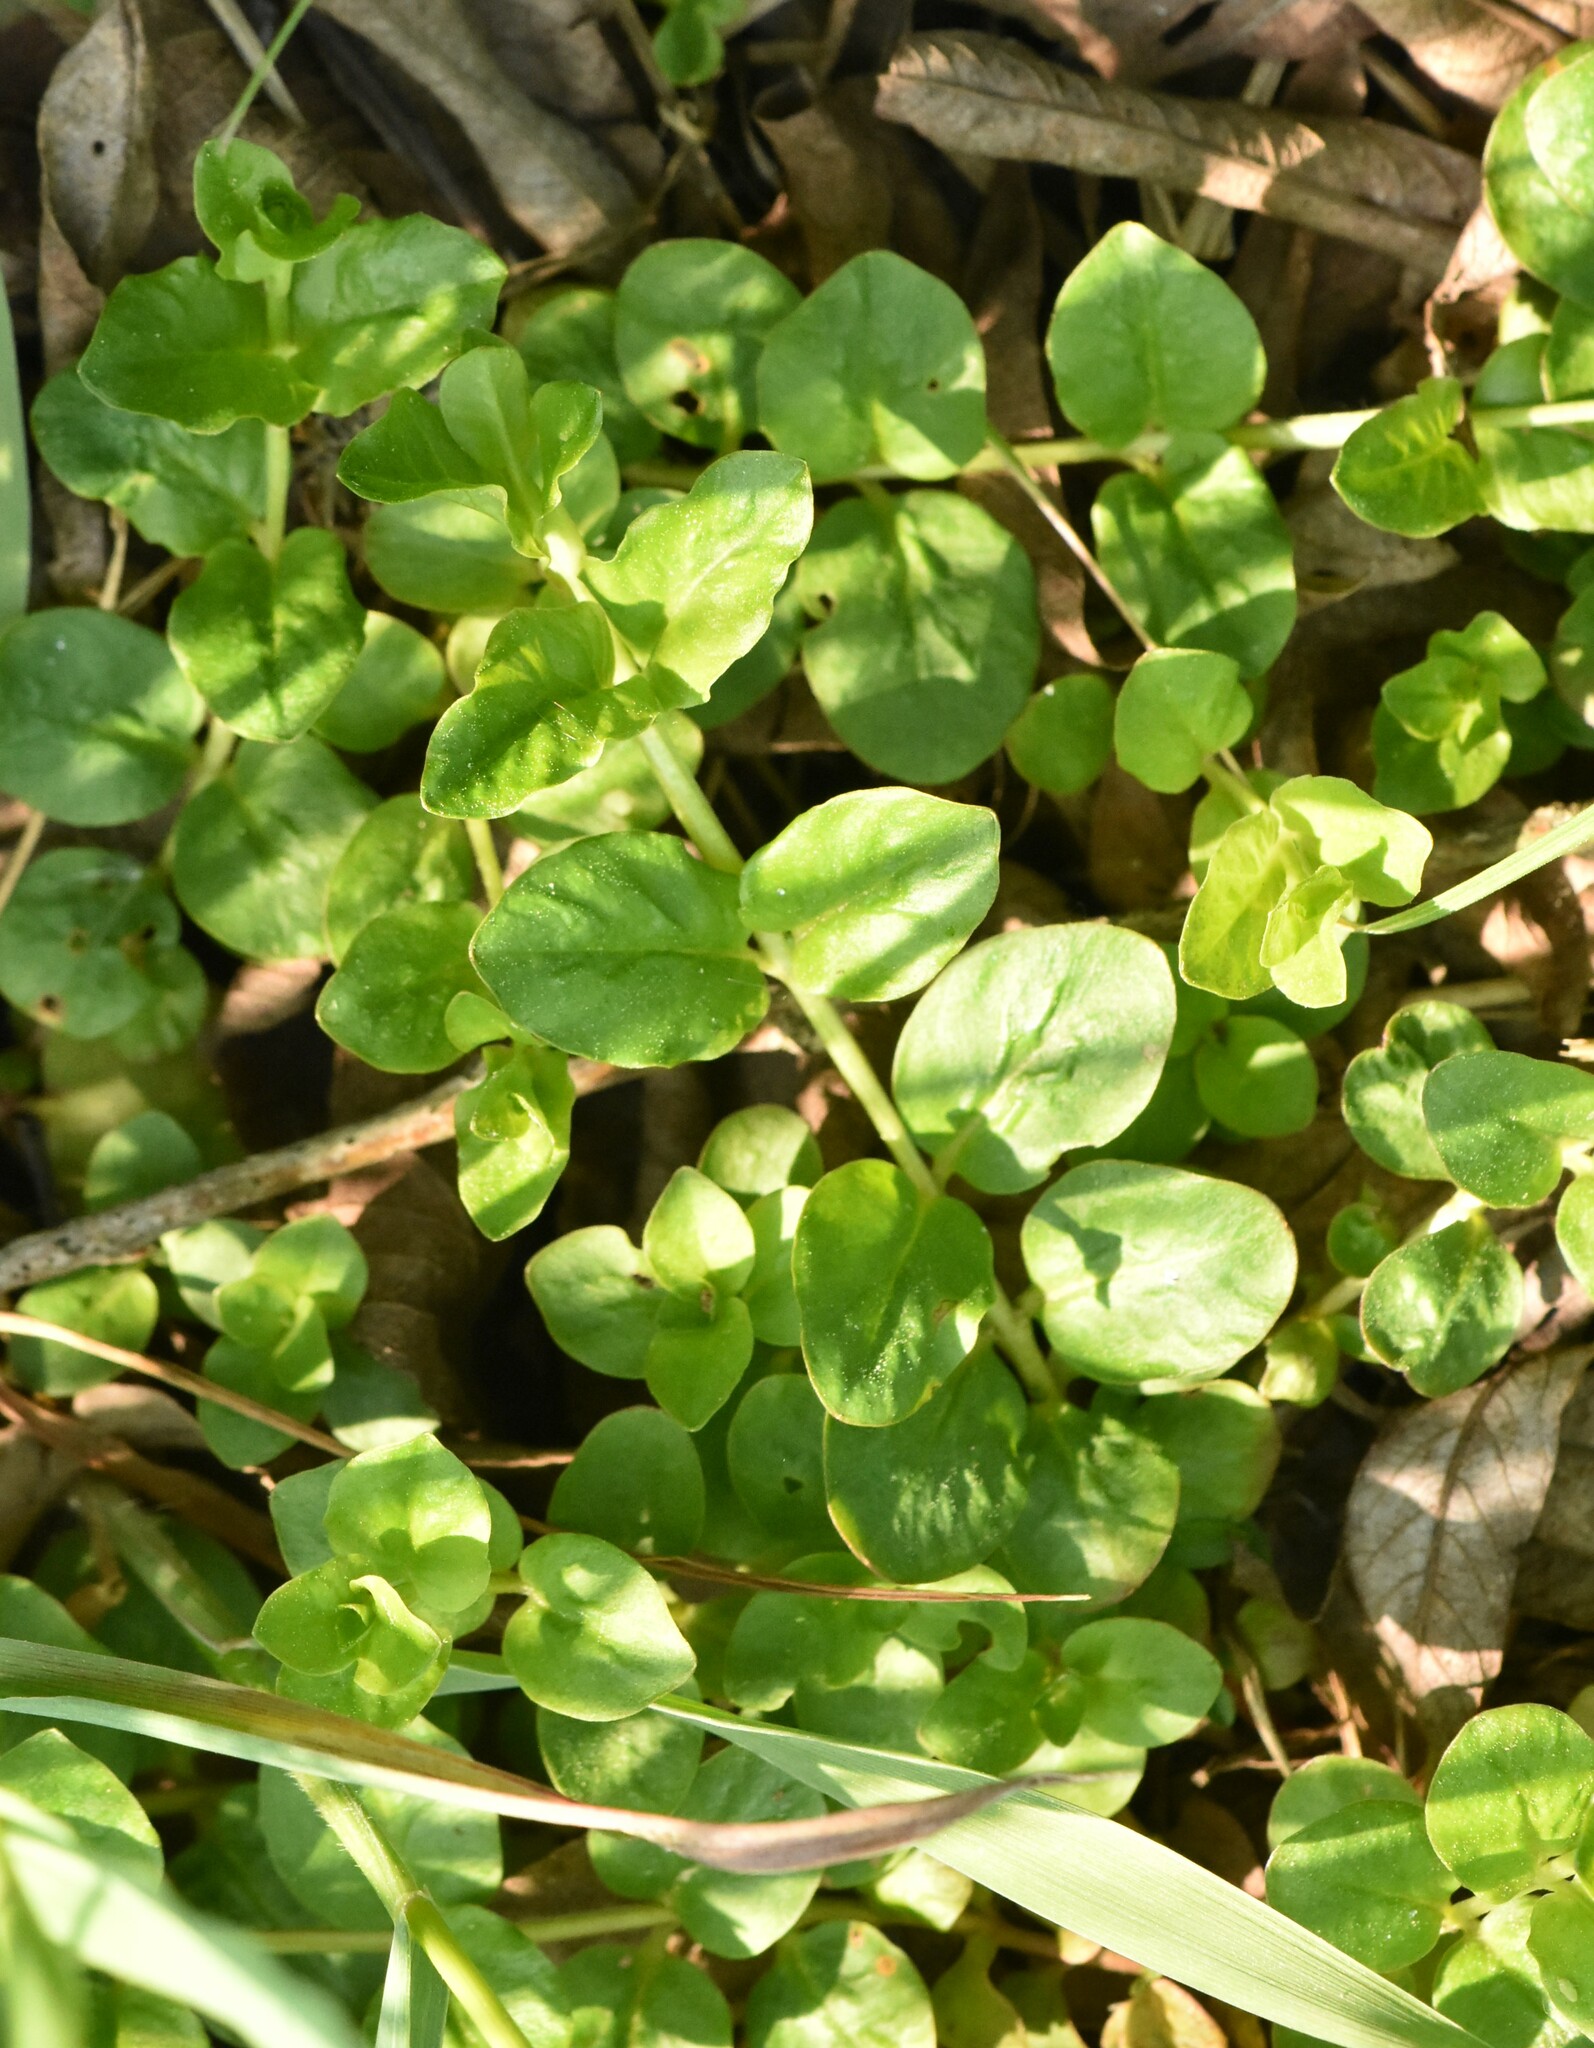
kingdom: Plantae
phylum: Tracheophyta
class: Magnoliopsida
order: Ericales
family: Primulaceae
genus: Lysimachia
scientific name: Lysimachia nummularia
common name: Moneywort
